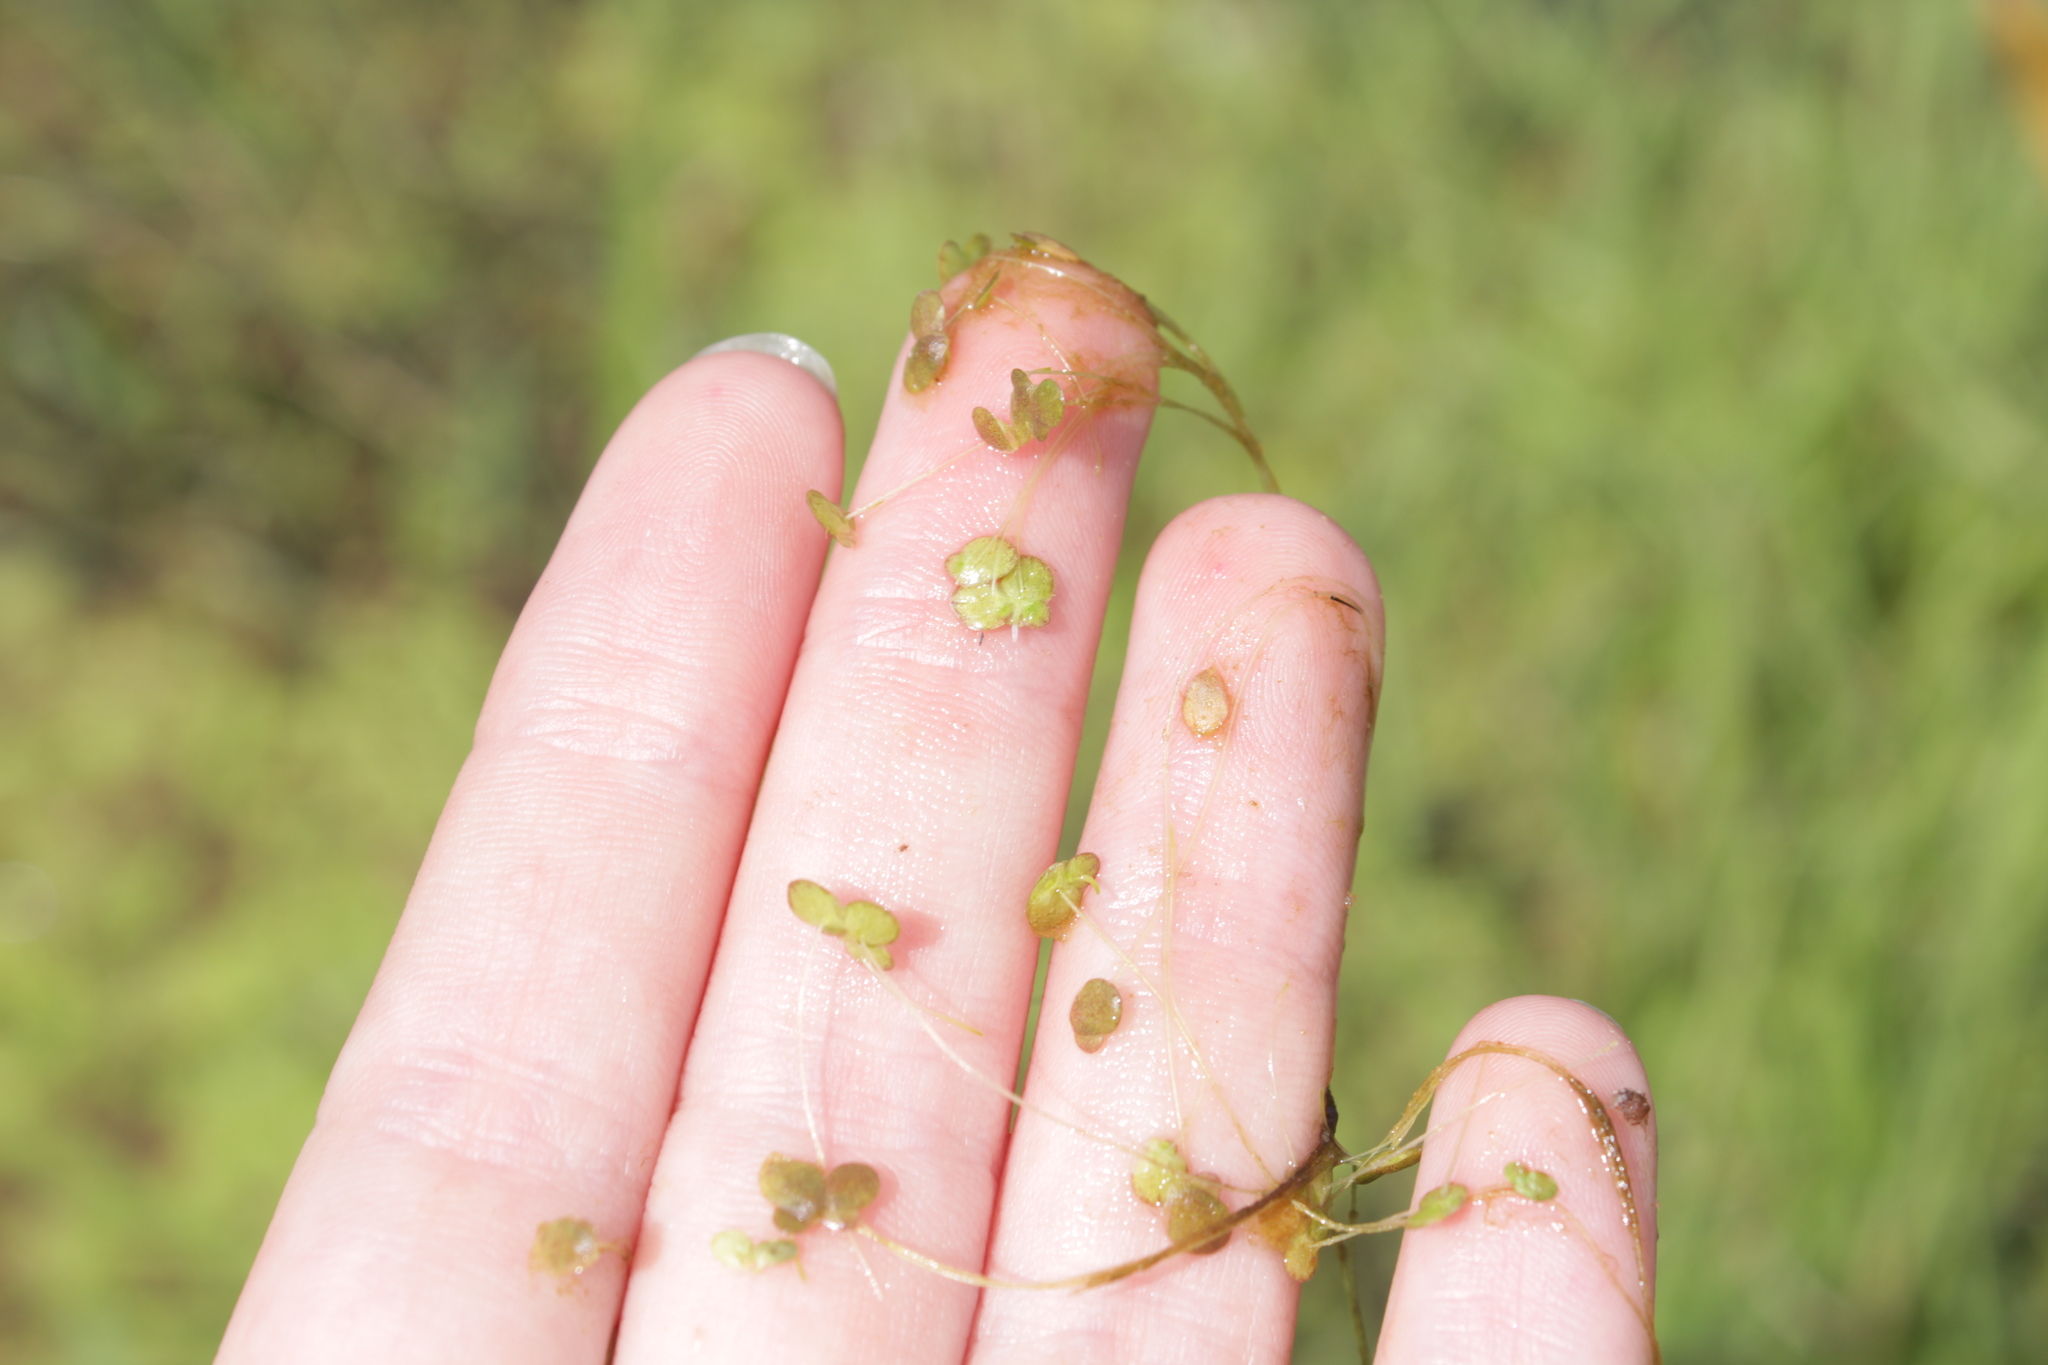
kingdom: Plantae
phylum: Tracheophyta
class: Liliopsida
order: Alismatales
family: Araceae
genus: Lemna
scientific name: Lemna minor
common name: Common duckweed
